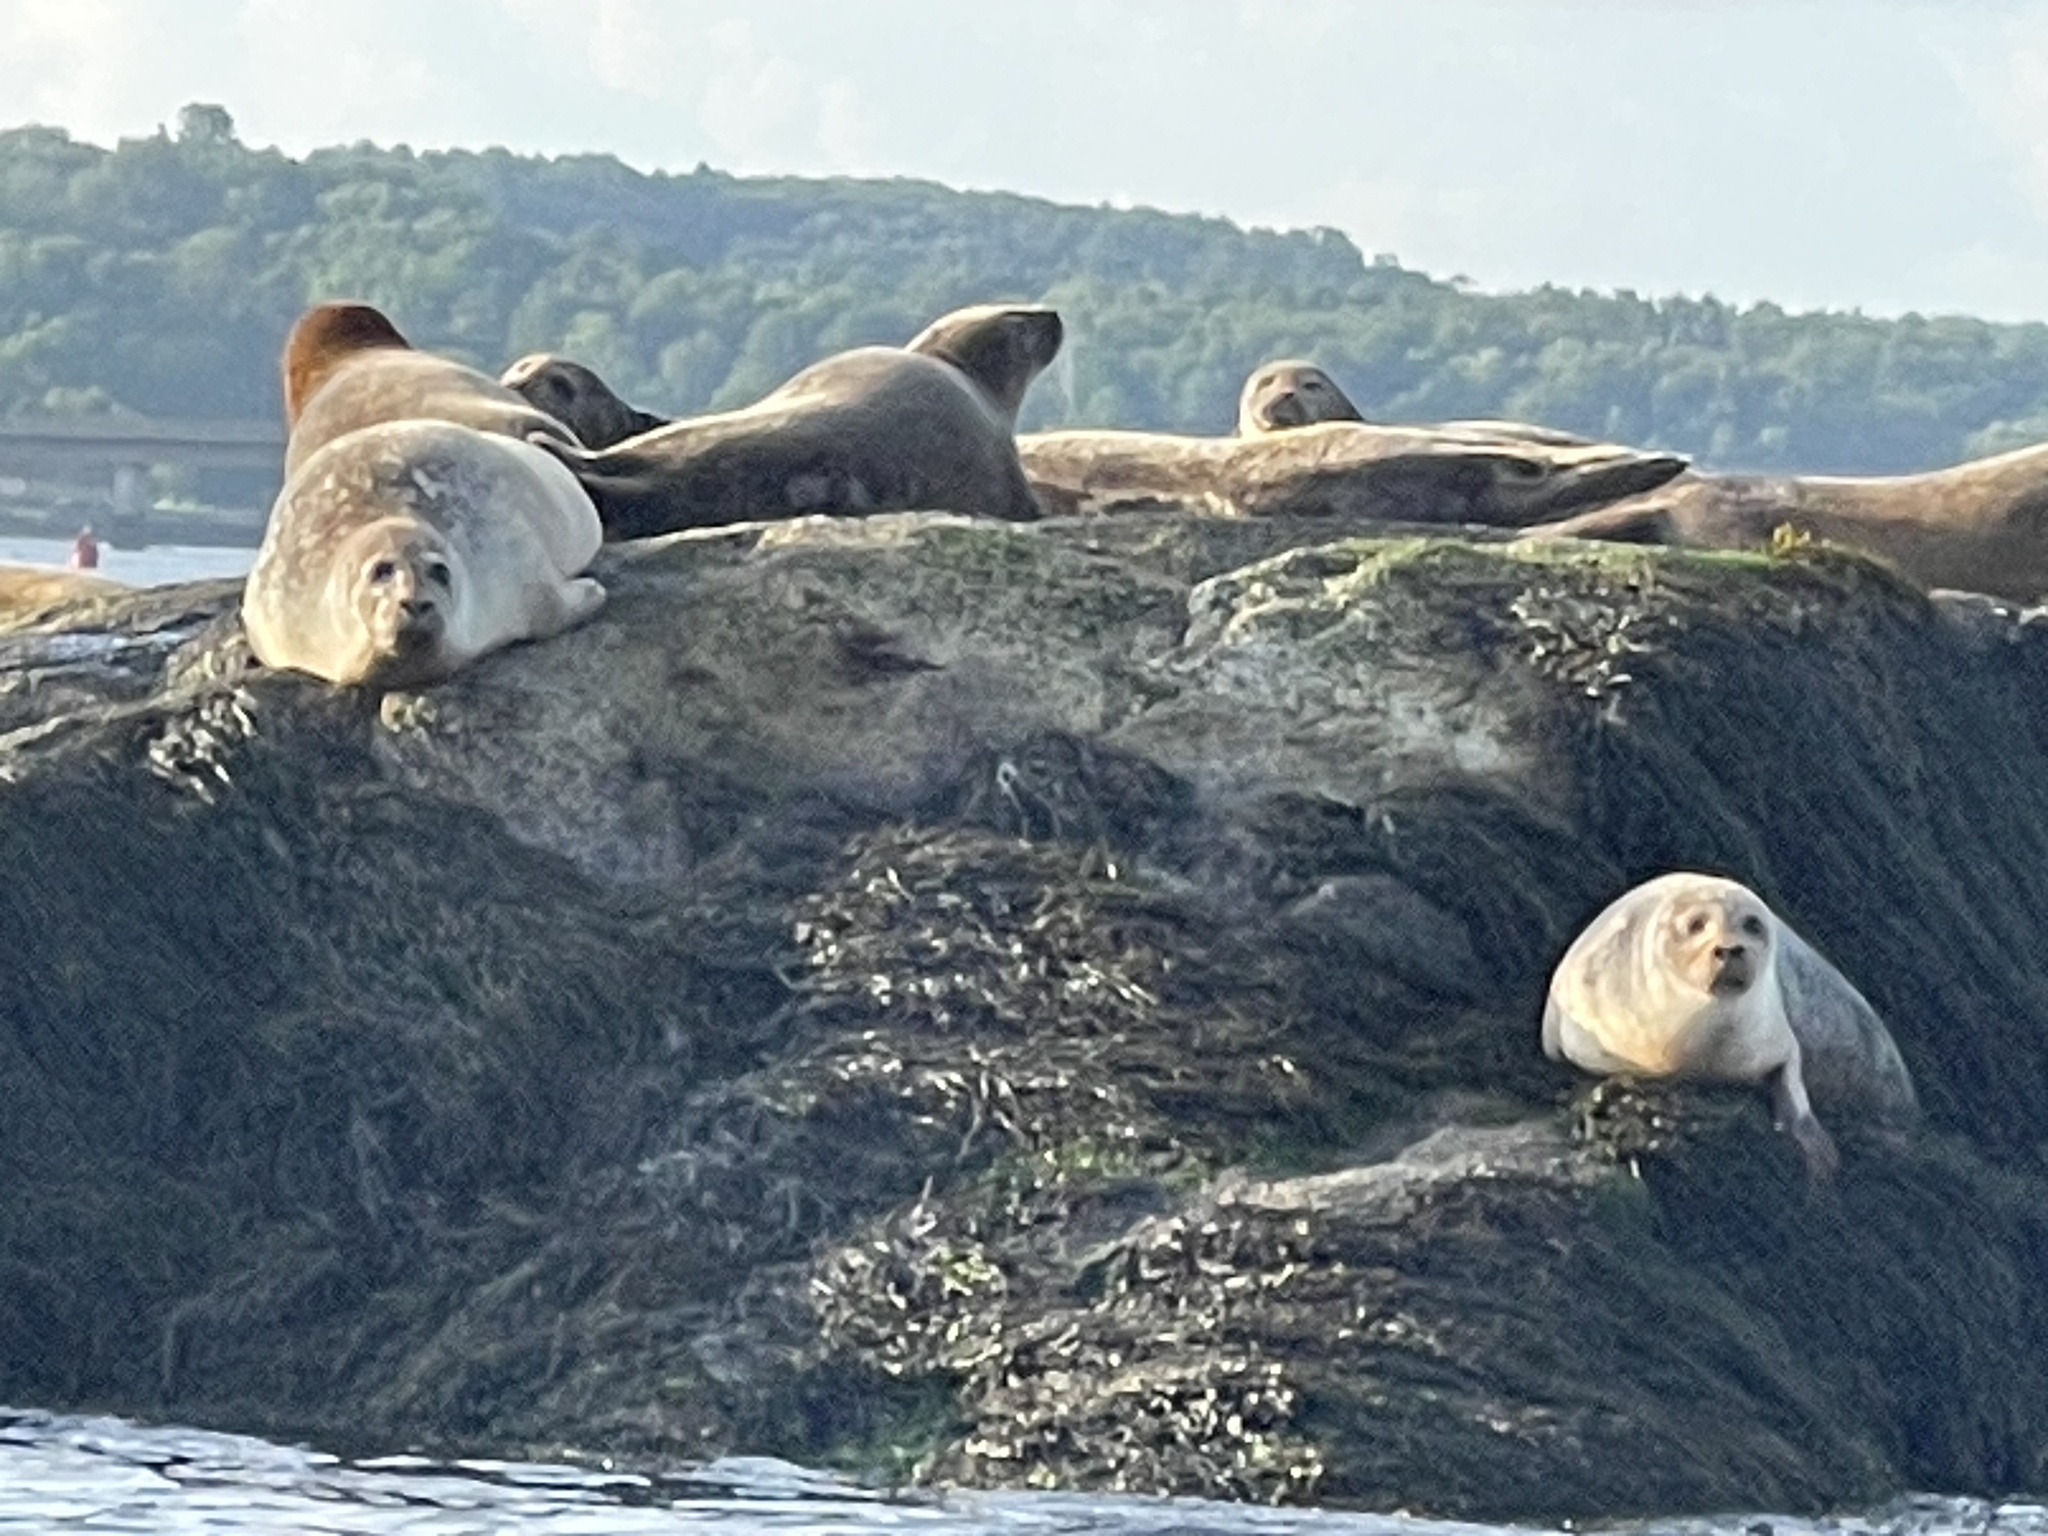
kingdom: Animalia
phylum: Chordata
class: Mammalia
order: Carnivora
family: Phocidae
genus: Phoca
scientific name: Phoca vitulina
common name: Harbor seal
